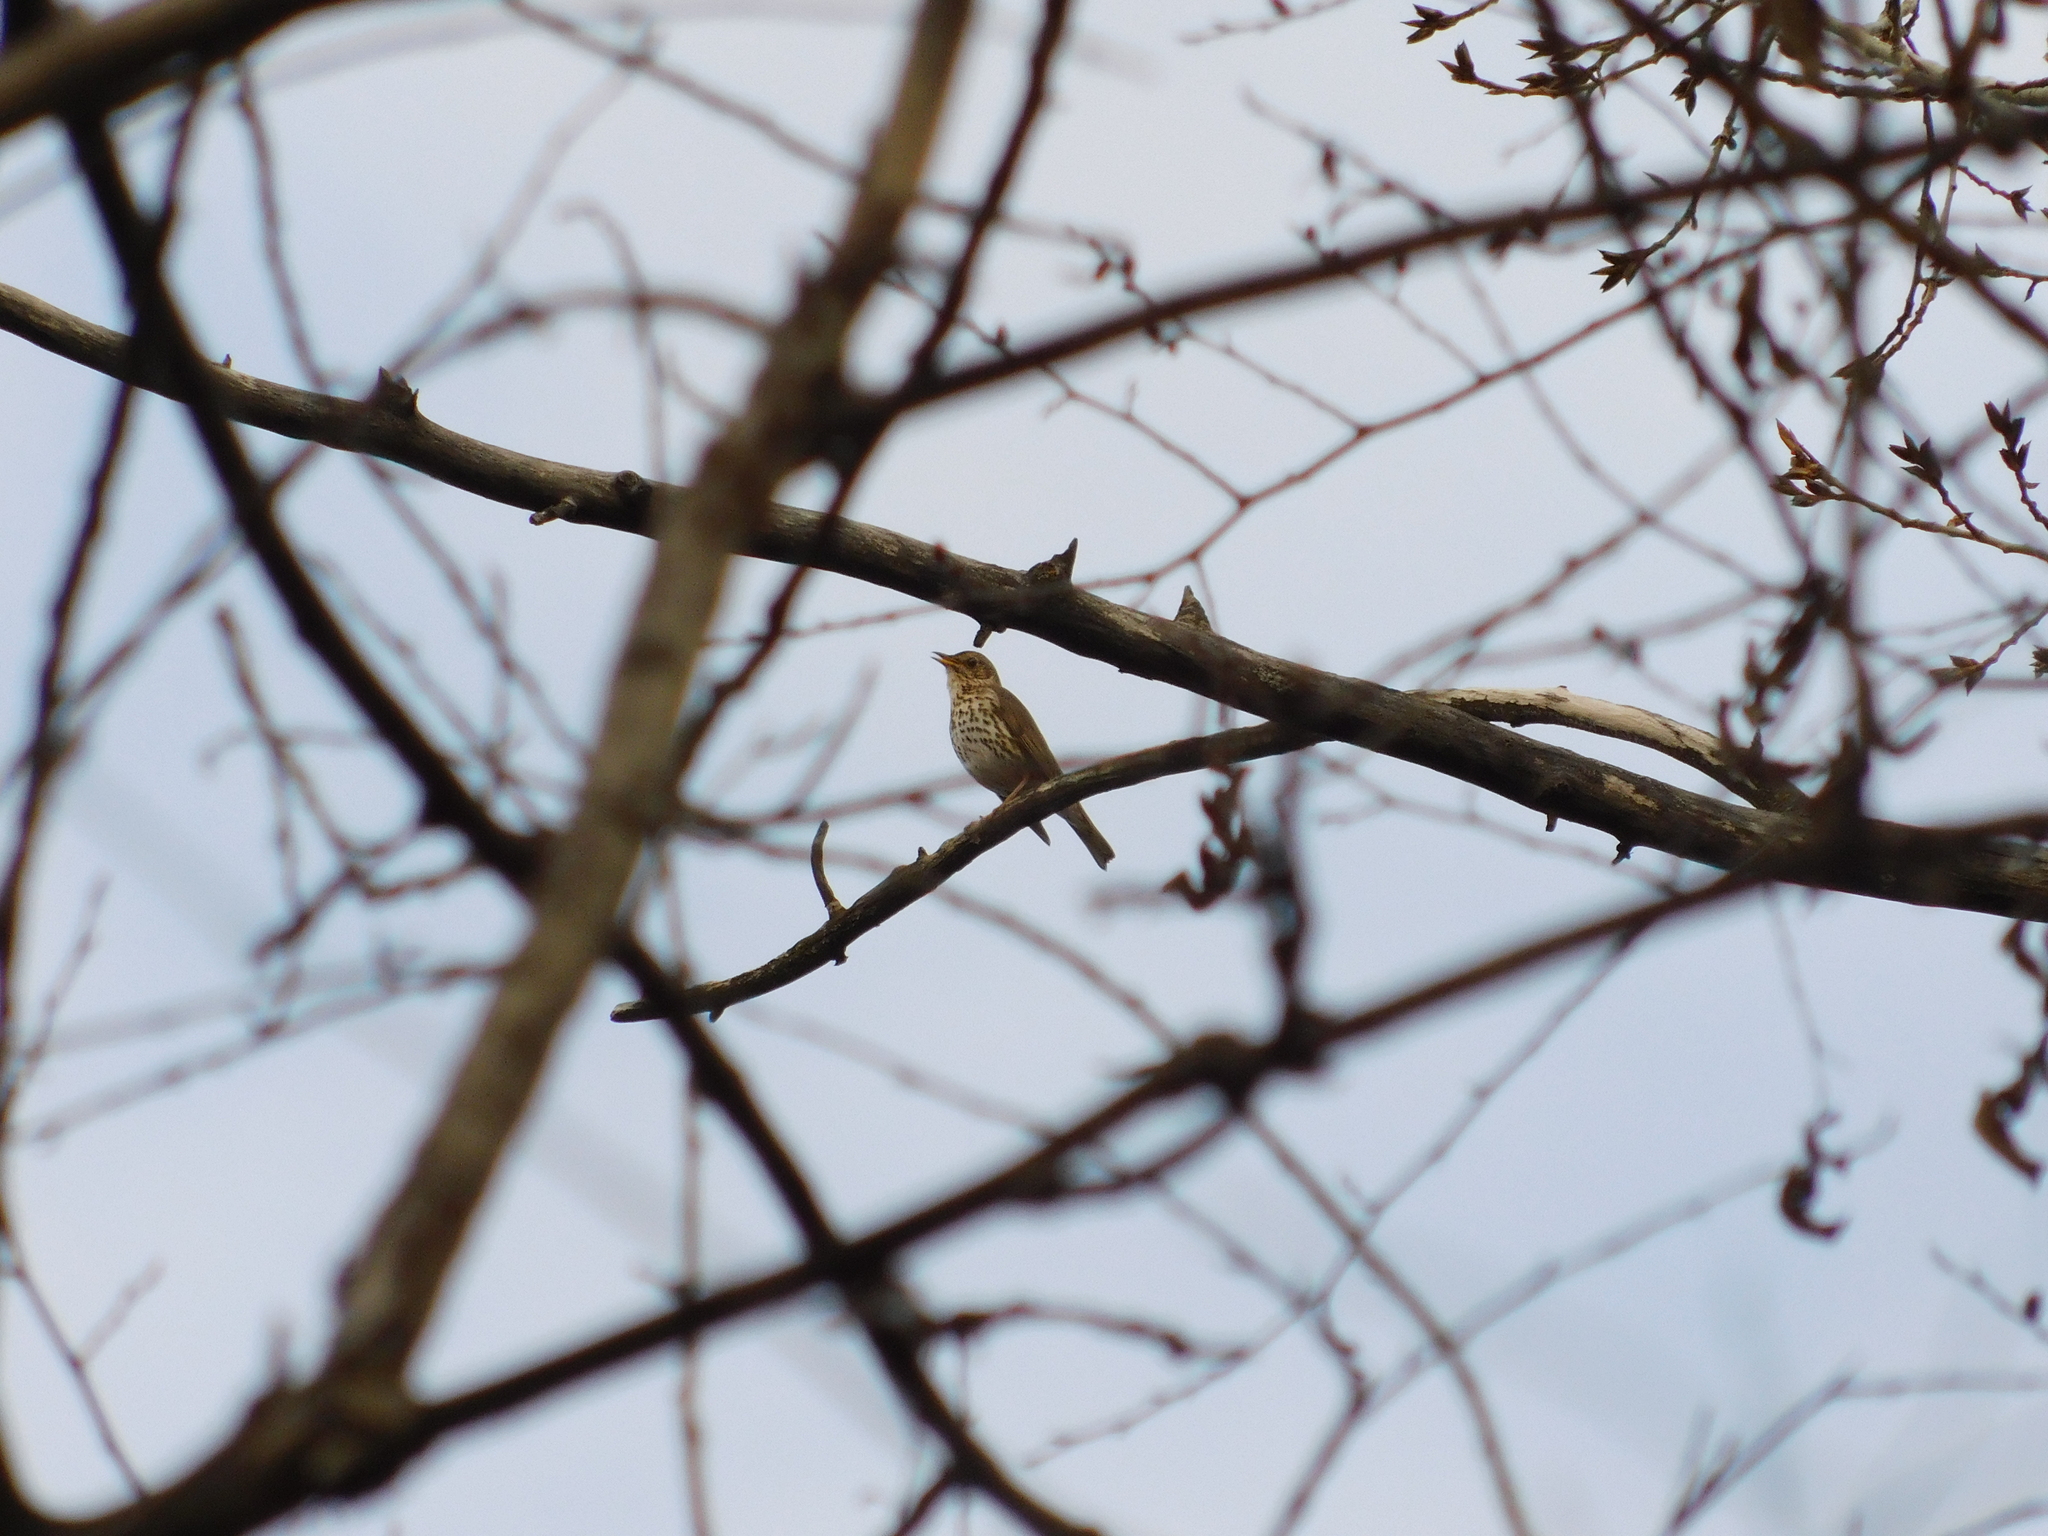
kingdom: Animalia
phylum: Chordata
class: Aves
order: Passeriformes
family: Turdidae
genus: Turdus
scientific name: Turdus philomelos
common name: Song thrush
